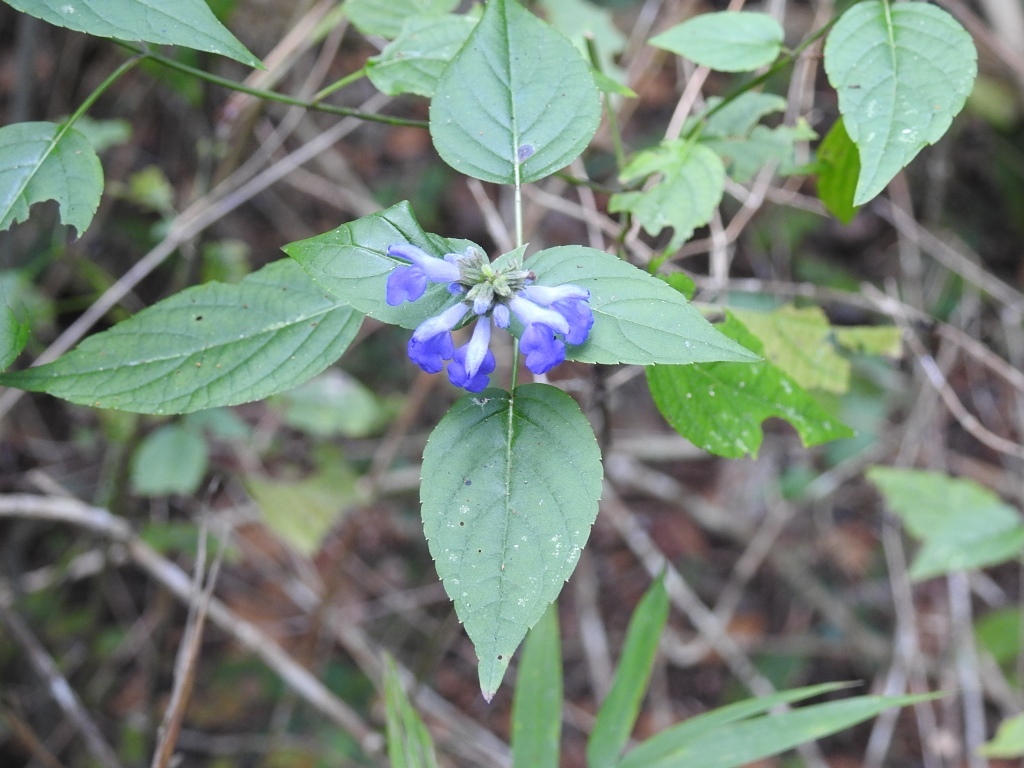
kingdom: Plantae
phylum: Tracheophyta
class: Magnoliopsida
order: Lamiales
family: Lamiaceae
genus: Salvia
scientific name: Salvia connivens
